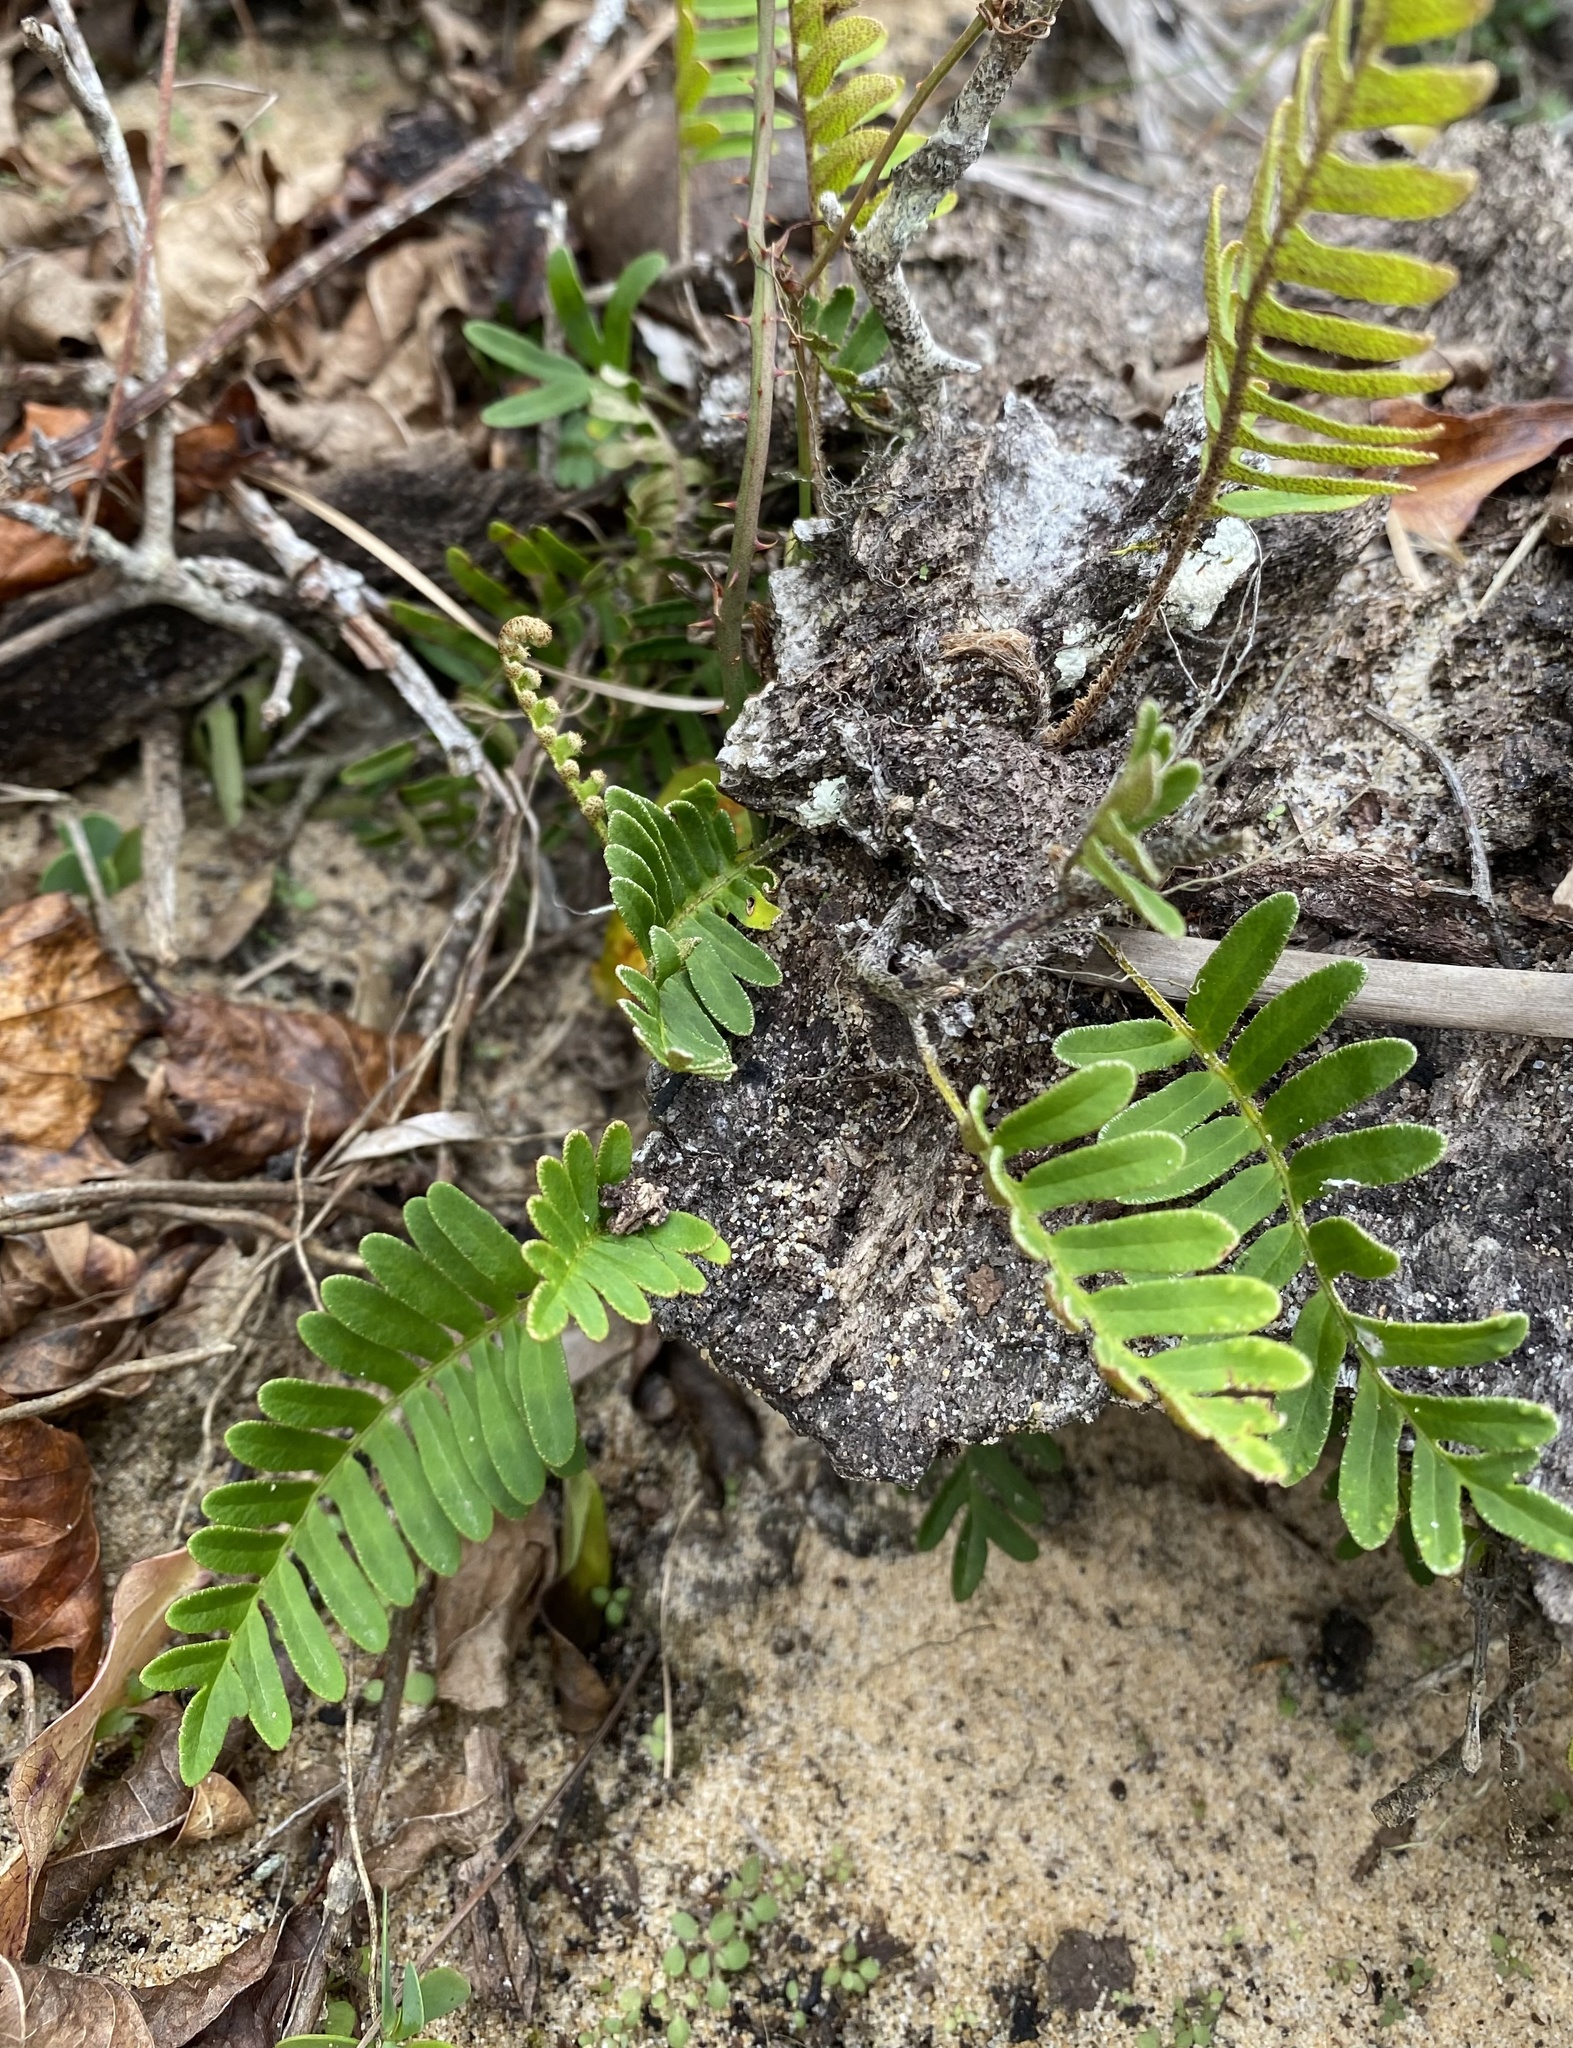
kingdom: Plantae
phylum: Tracheophyta
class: Polypodiopsida
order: Polypodiales
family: Polypodiaceae
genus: Pleopeltis
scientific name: Pleopeltis michauxiana
